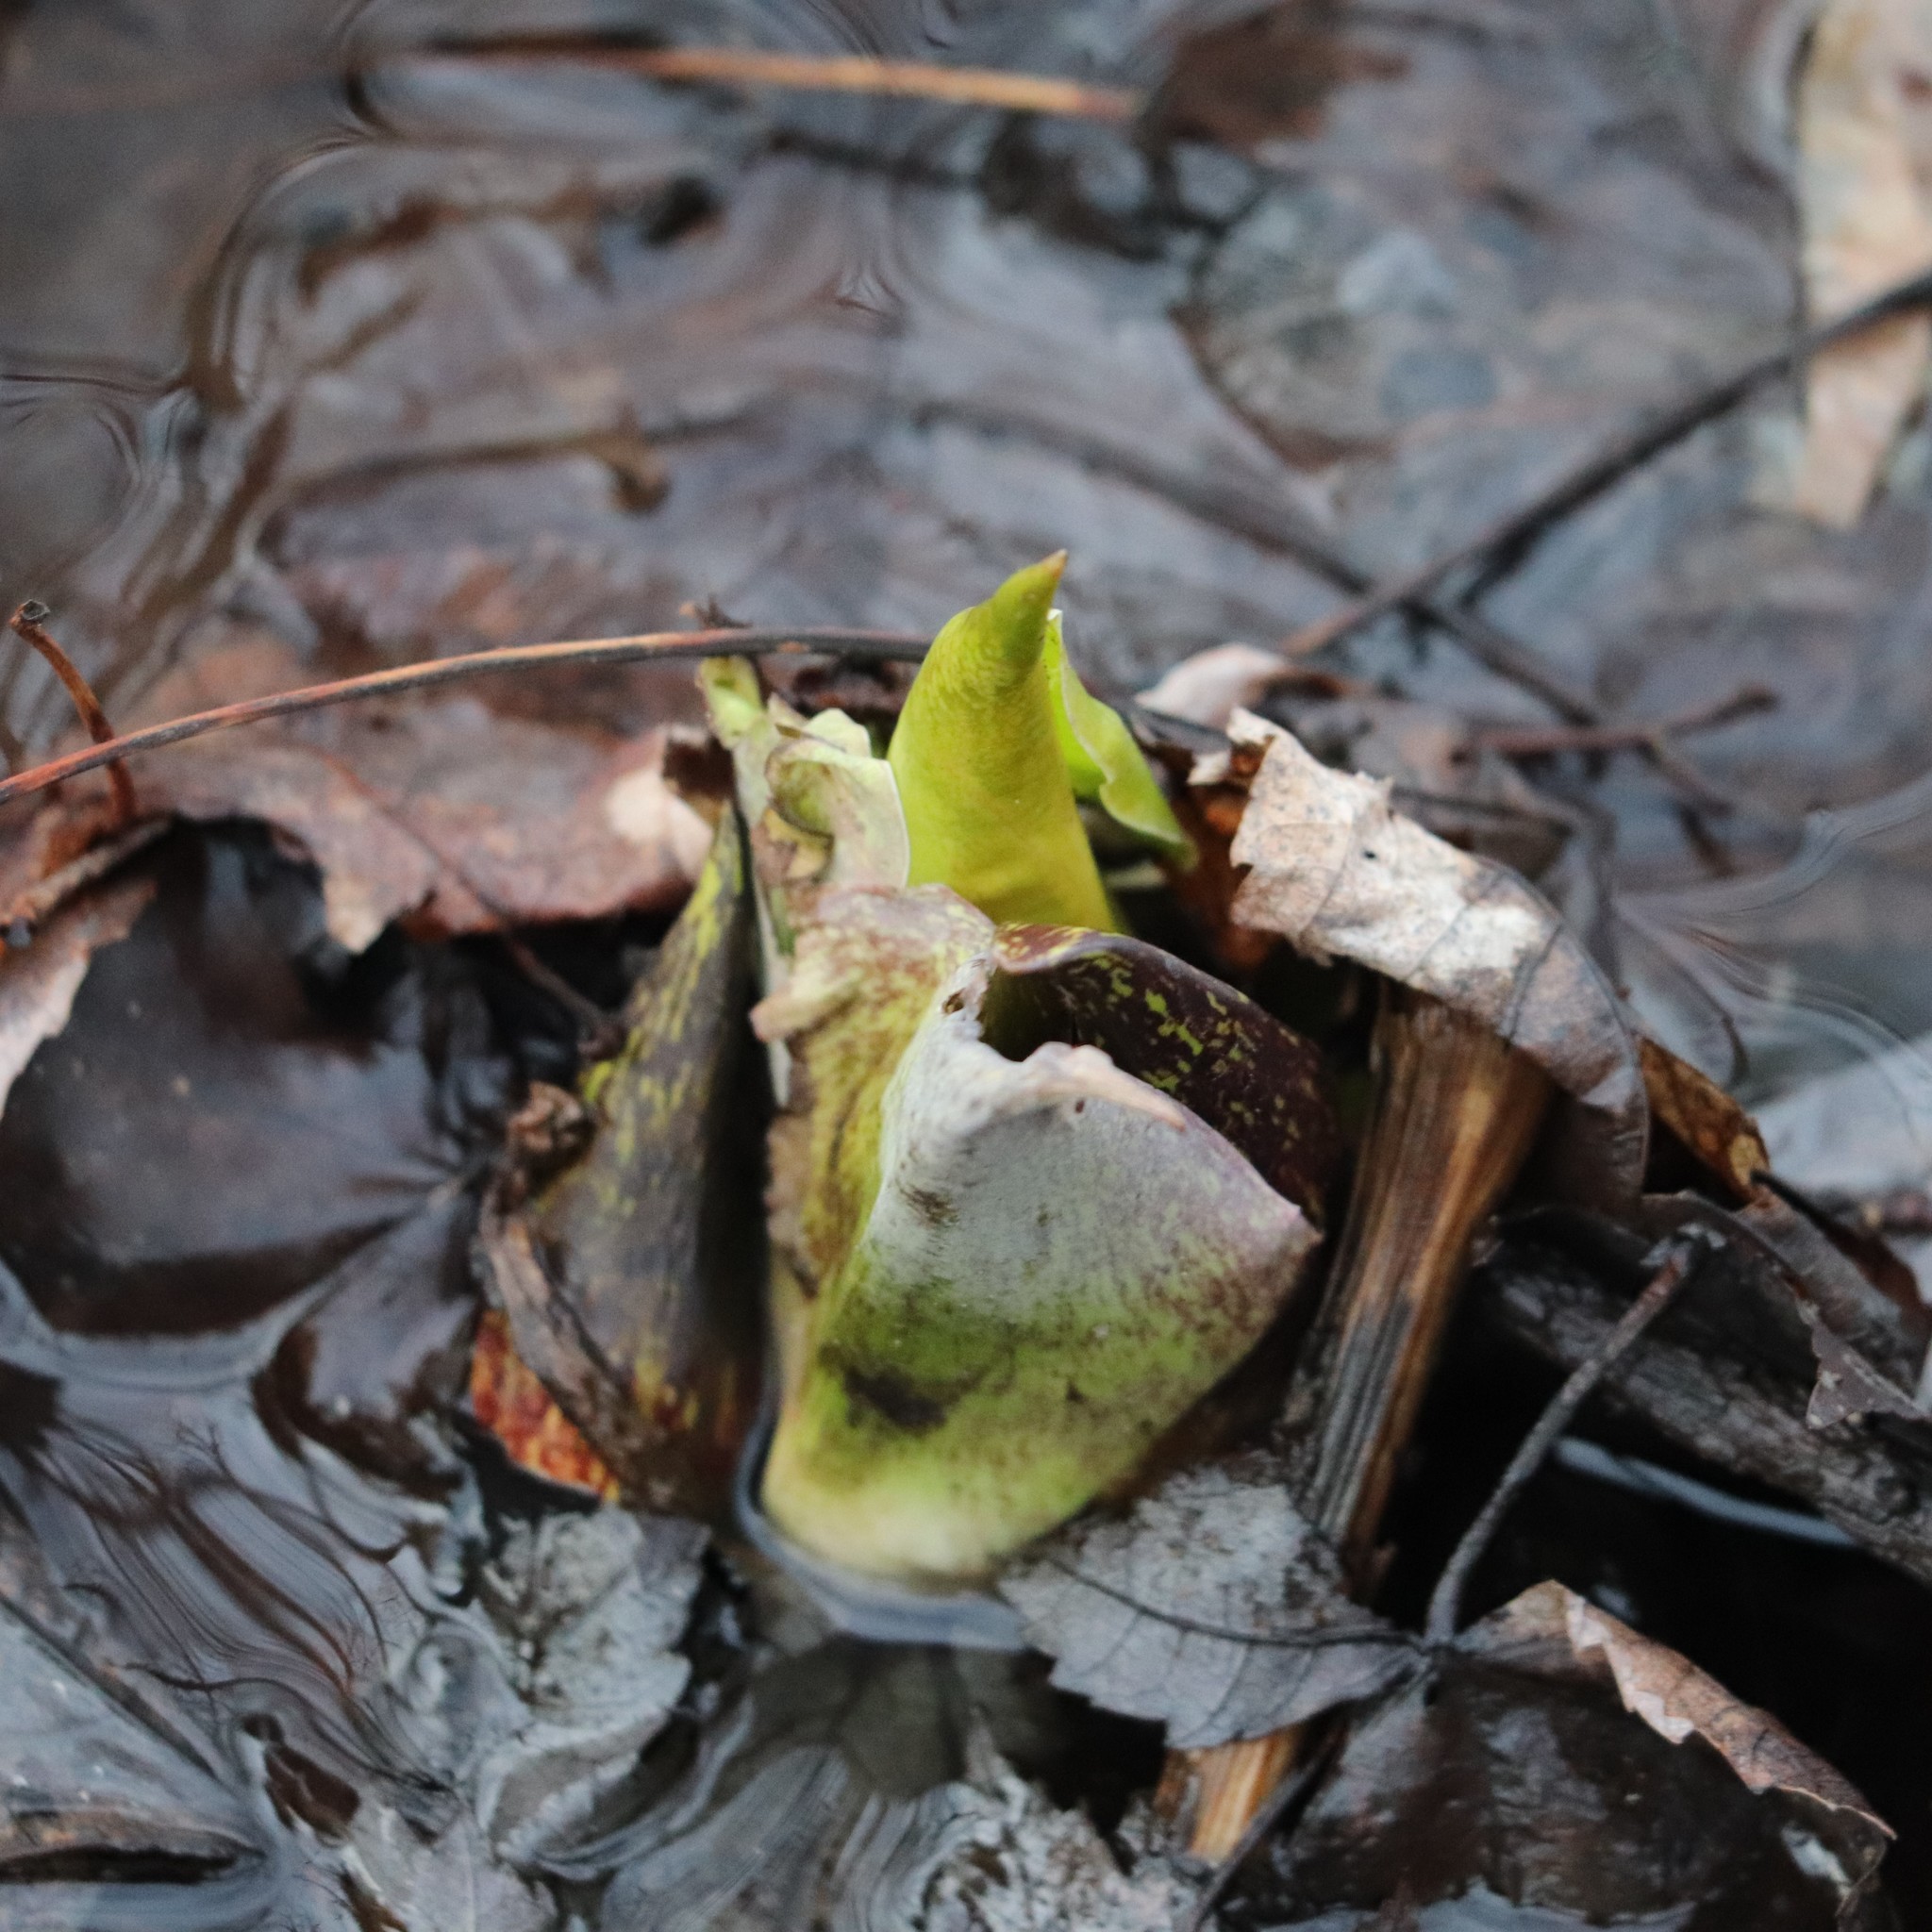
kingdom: Plantae
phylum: Tracheophyta
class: Liliopsida
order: Alismatales
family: Araceae
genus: Symplocarpus
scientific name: Symplocarpus foetidus
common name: Eastern skunk cabbage
